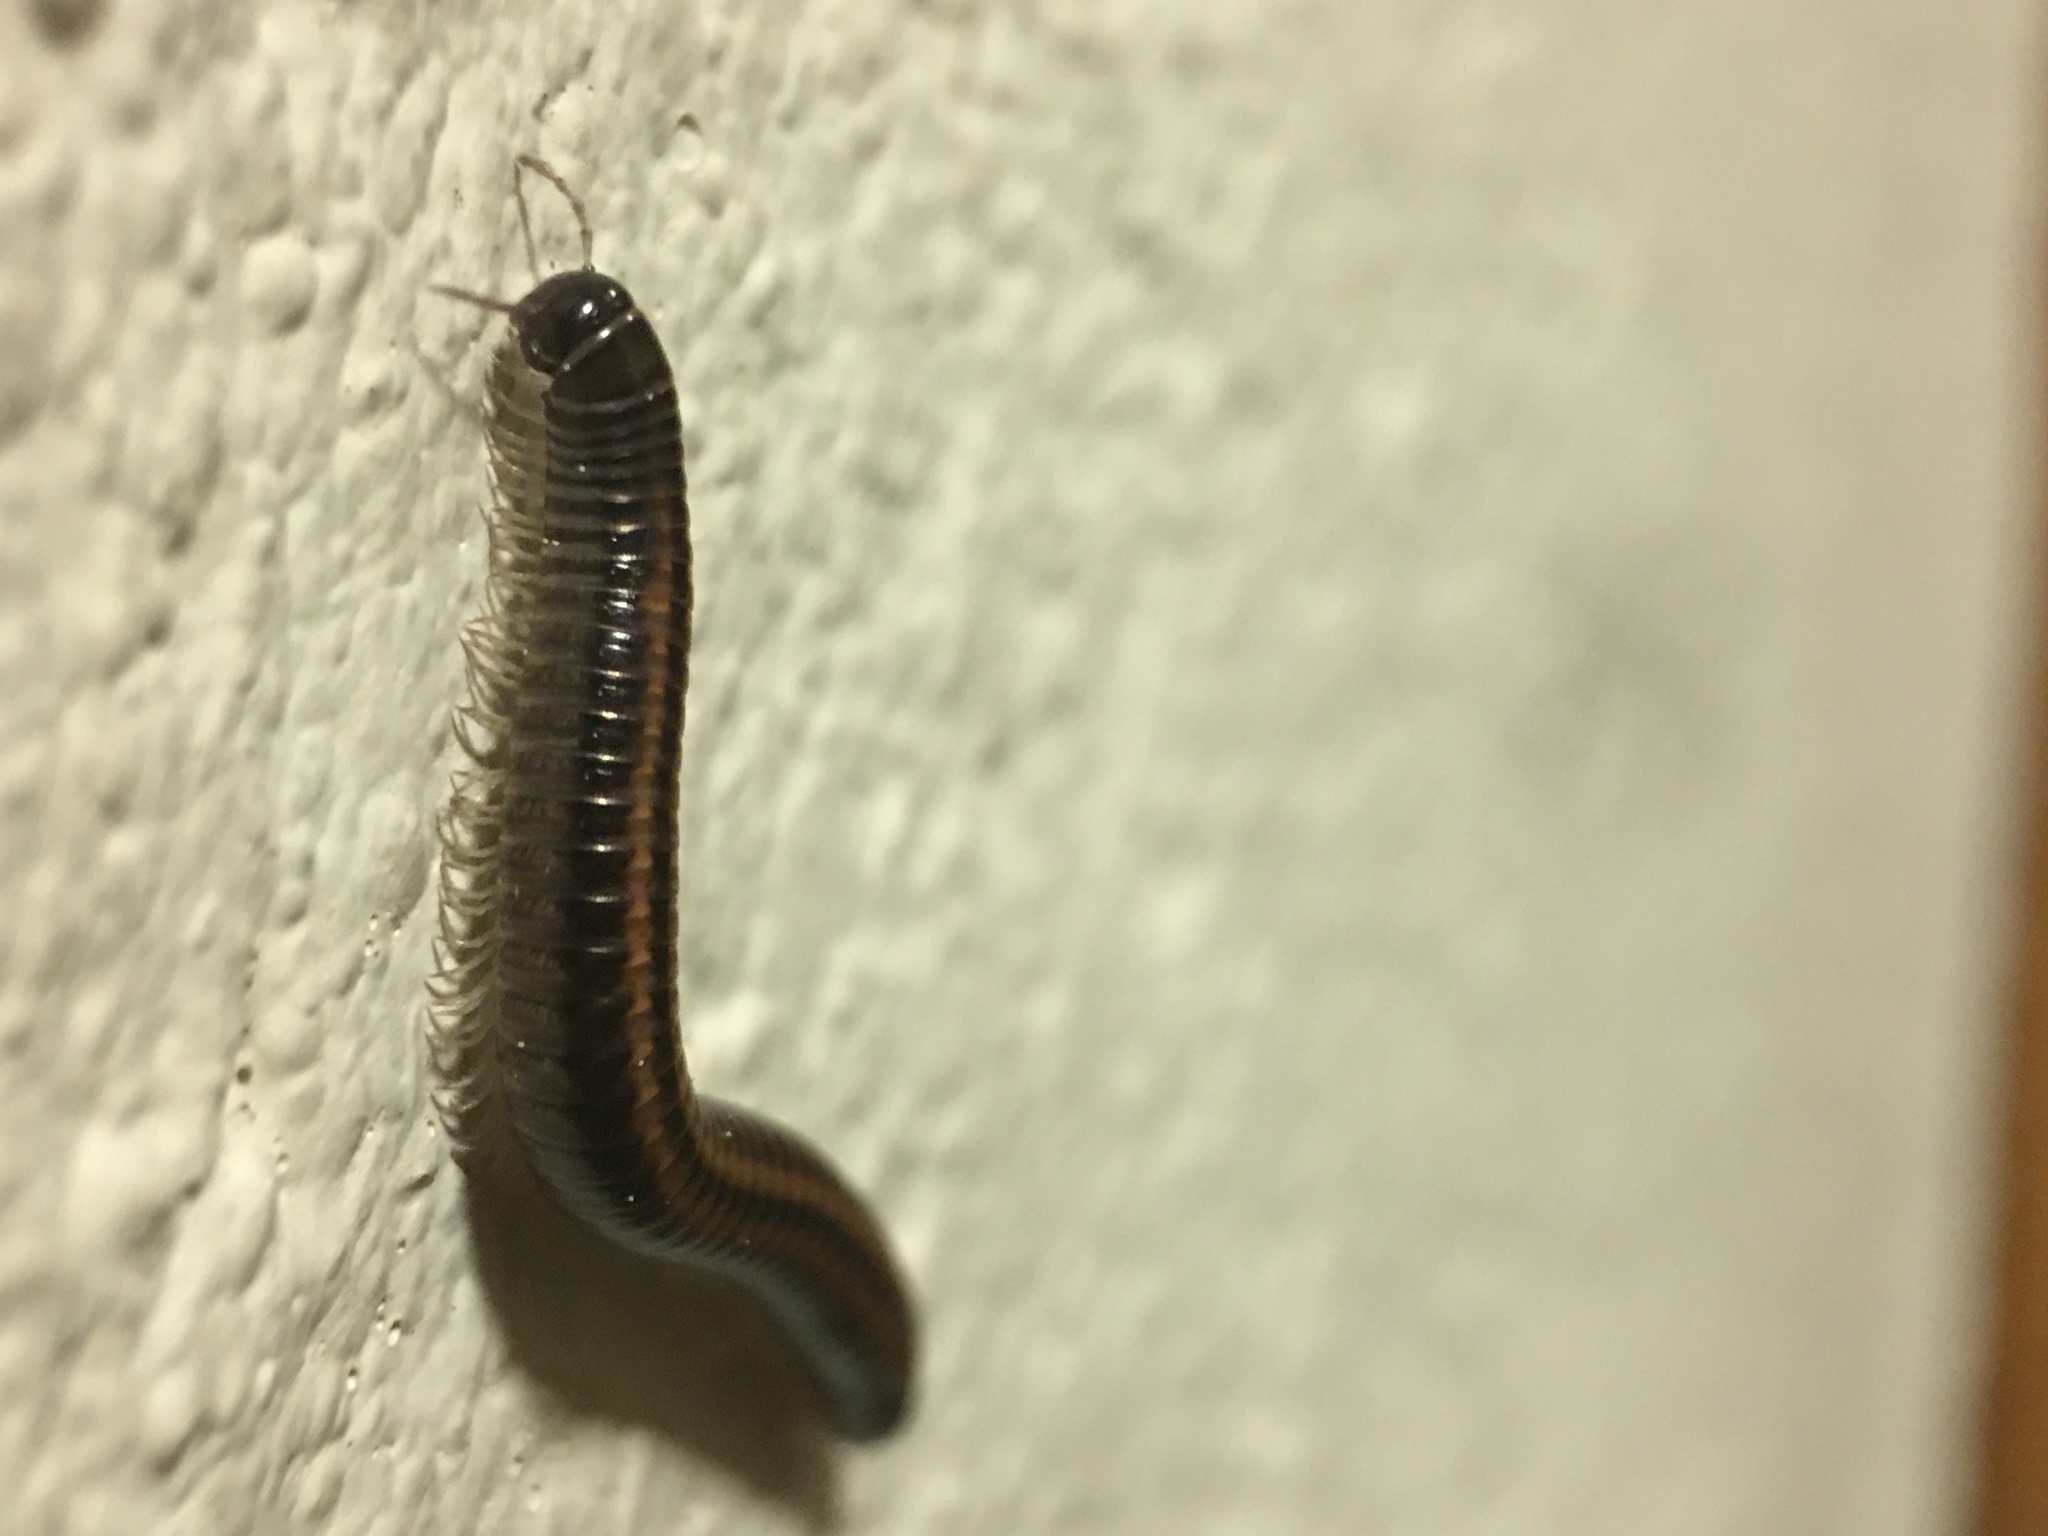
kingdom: Animalia
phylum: Arthropoda
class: Diplopoda
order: Julida
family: Julidae
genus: Ommatoiulus
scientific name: Ommatoiulus sabulosus
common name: Striped millipede
